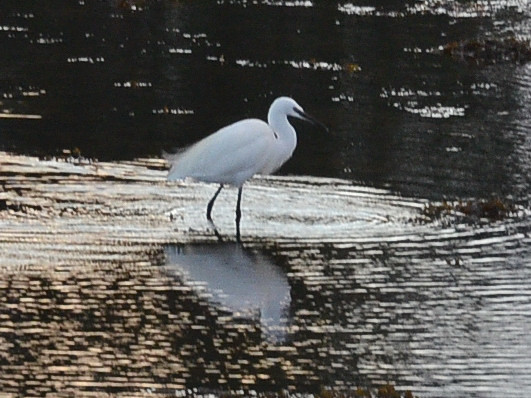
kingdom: Animalia
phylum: Chordata
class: Aves
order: Pelecaniformes
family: Ardeidae
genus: Egretta
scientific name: Egretta garzetta
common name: Little egret
